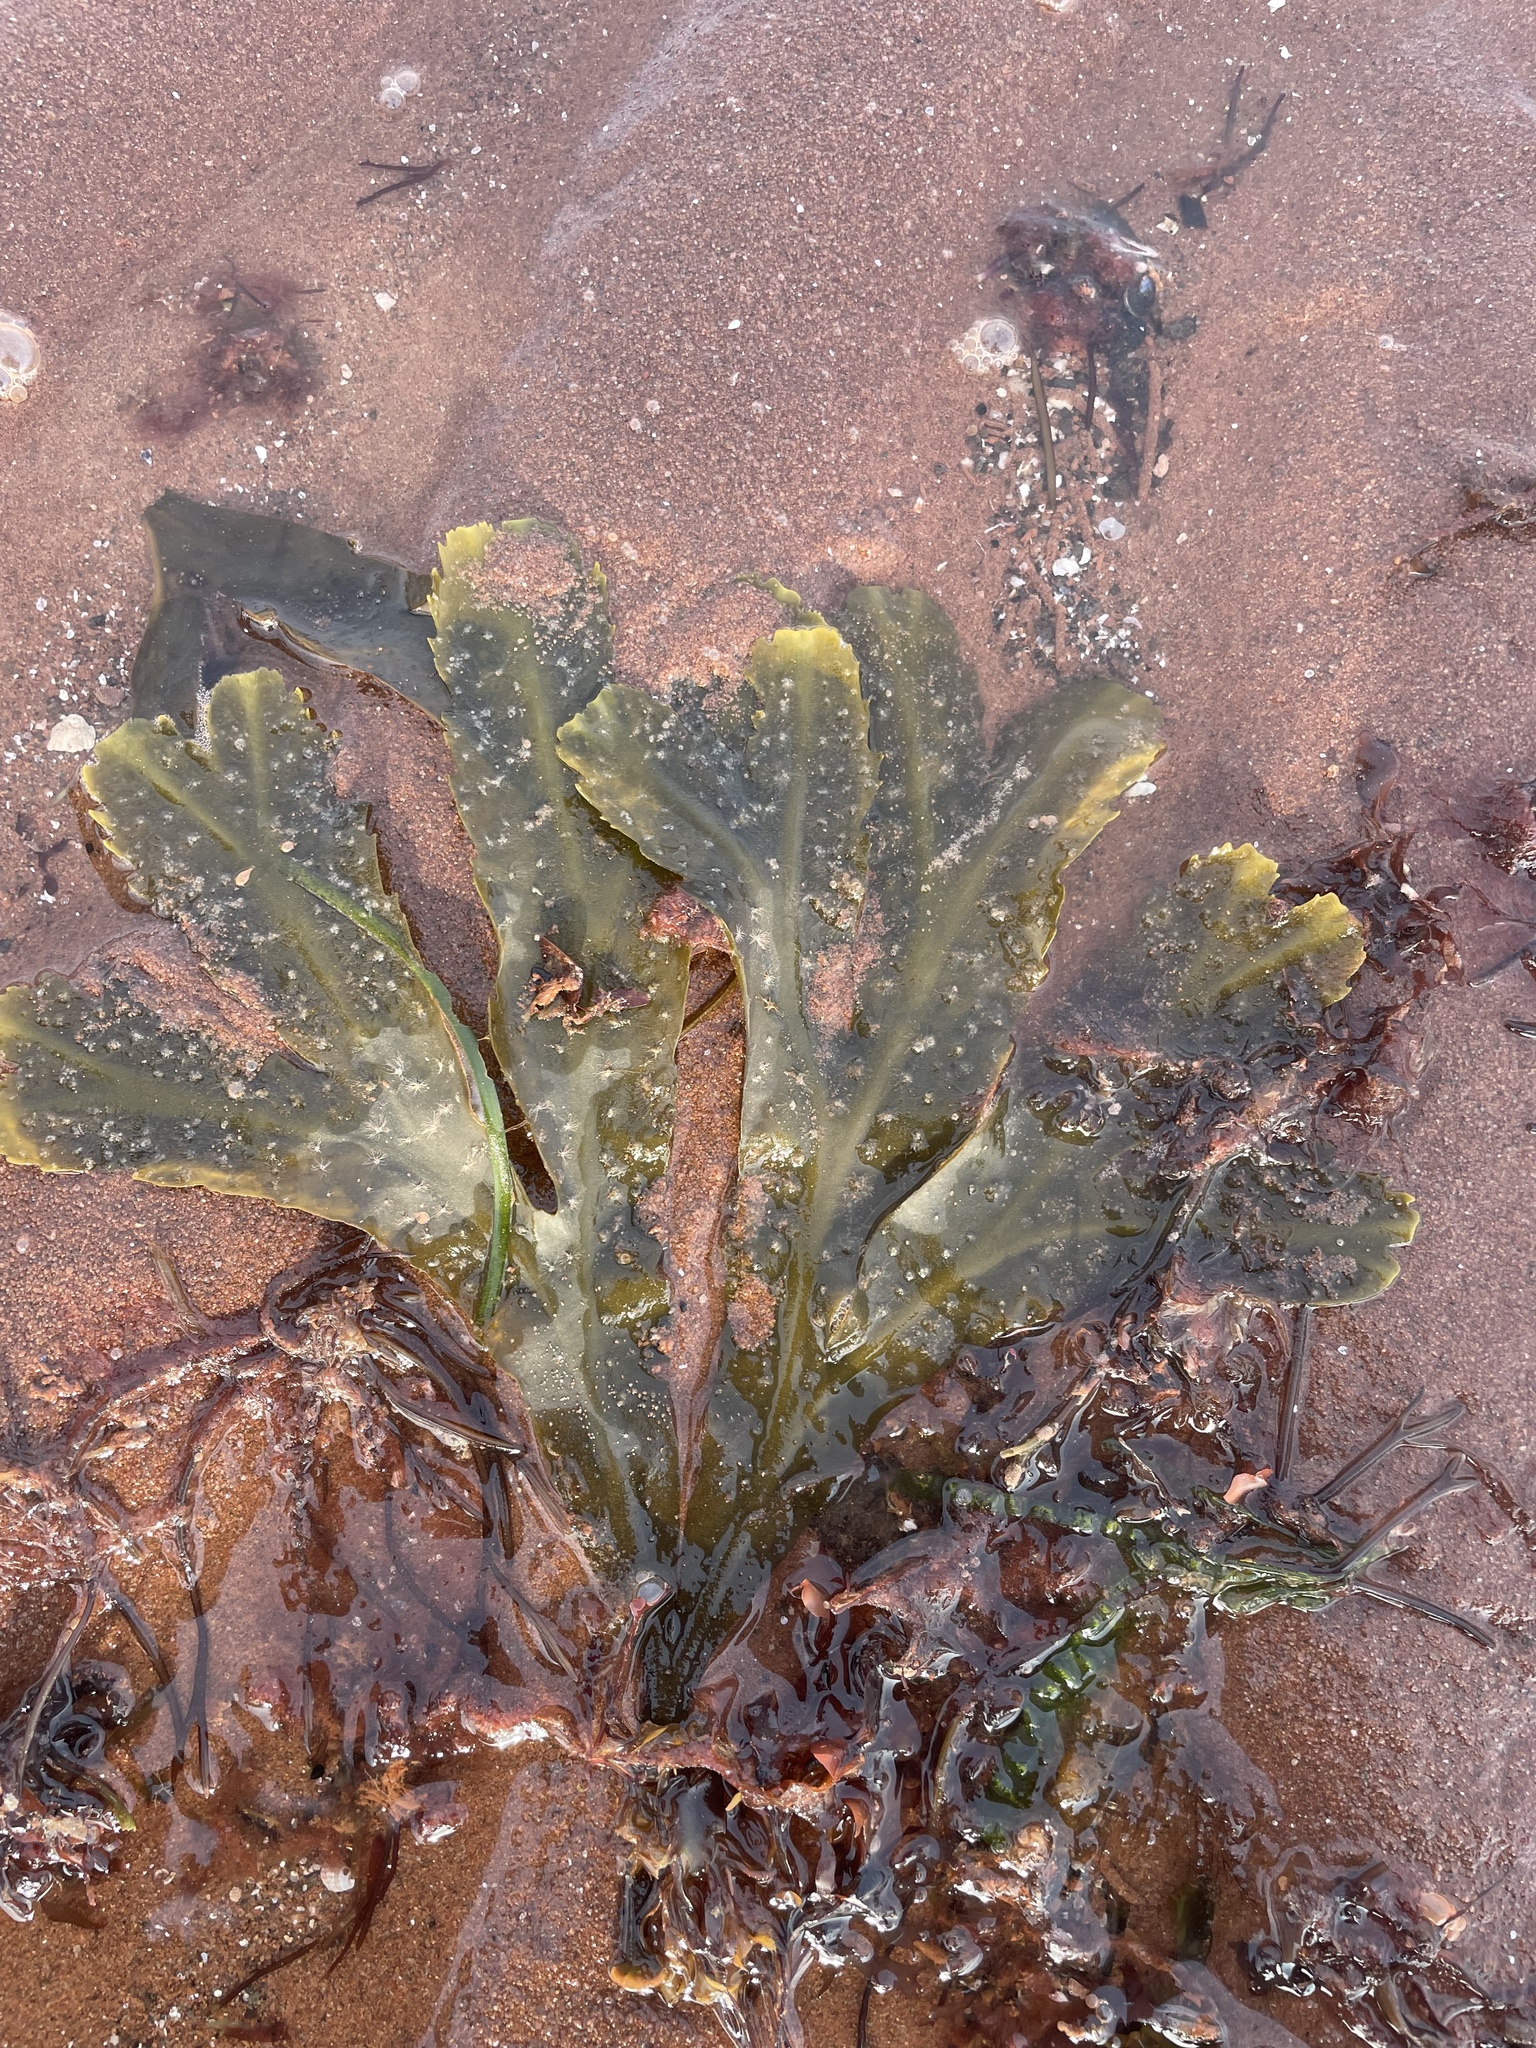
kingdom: Chromista
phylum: Ochrophyta
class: Phaeophyceae
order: Fucales
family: Fucaceae
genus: Fucus
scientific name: Fucus serratus
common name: Toothed wrack
